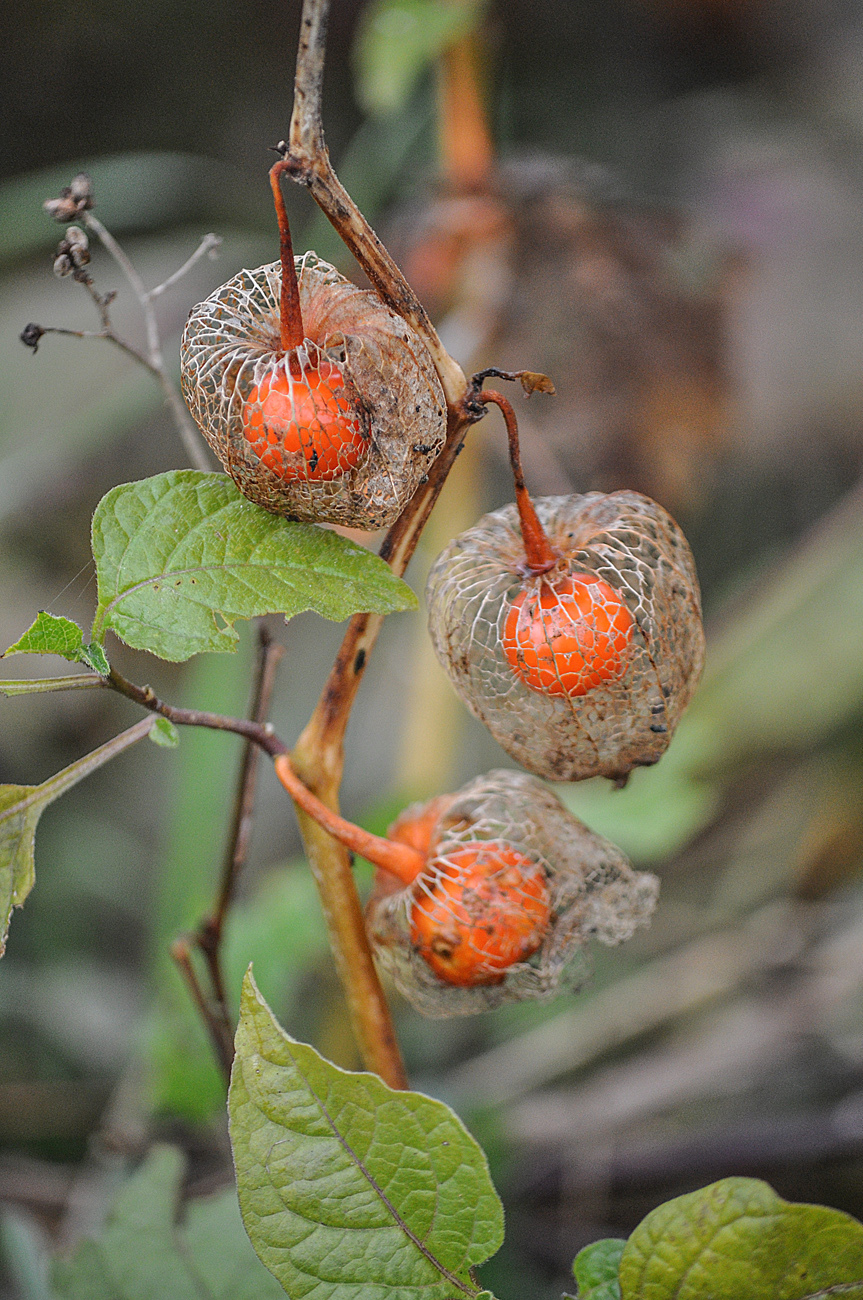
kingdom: Plantae
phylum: Tracheophyta
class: Magnoliopsida
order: Solanales
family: Solanaceae
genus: Alkekengi
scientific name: Alkekengi officinarum
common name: Japanese-lantern
